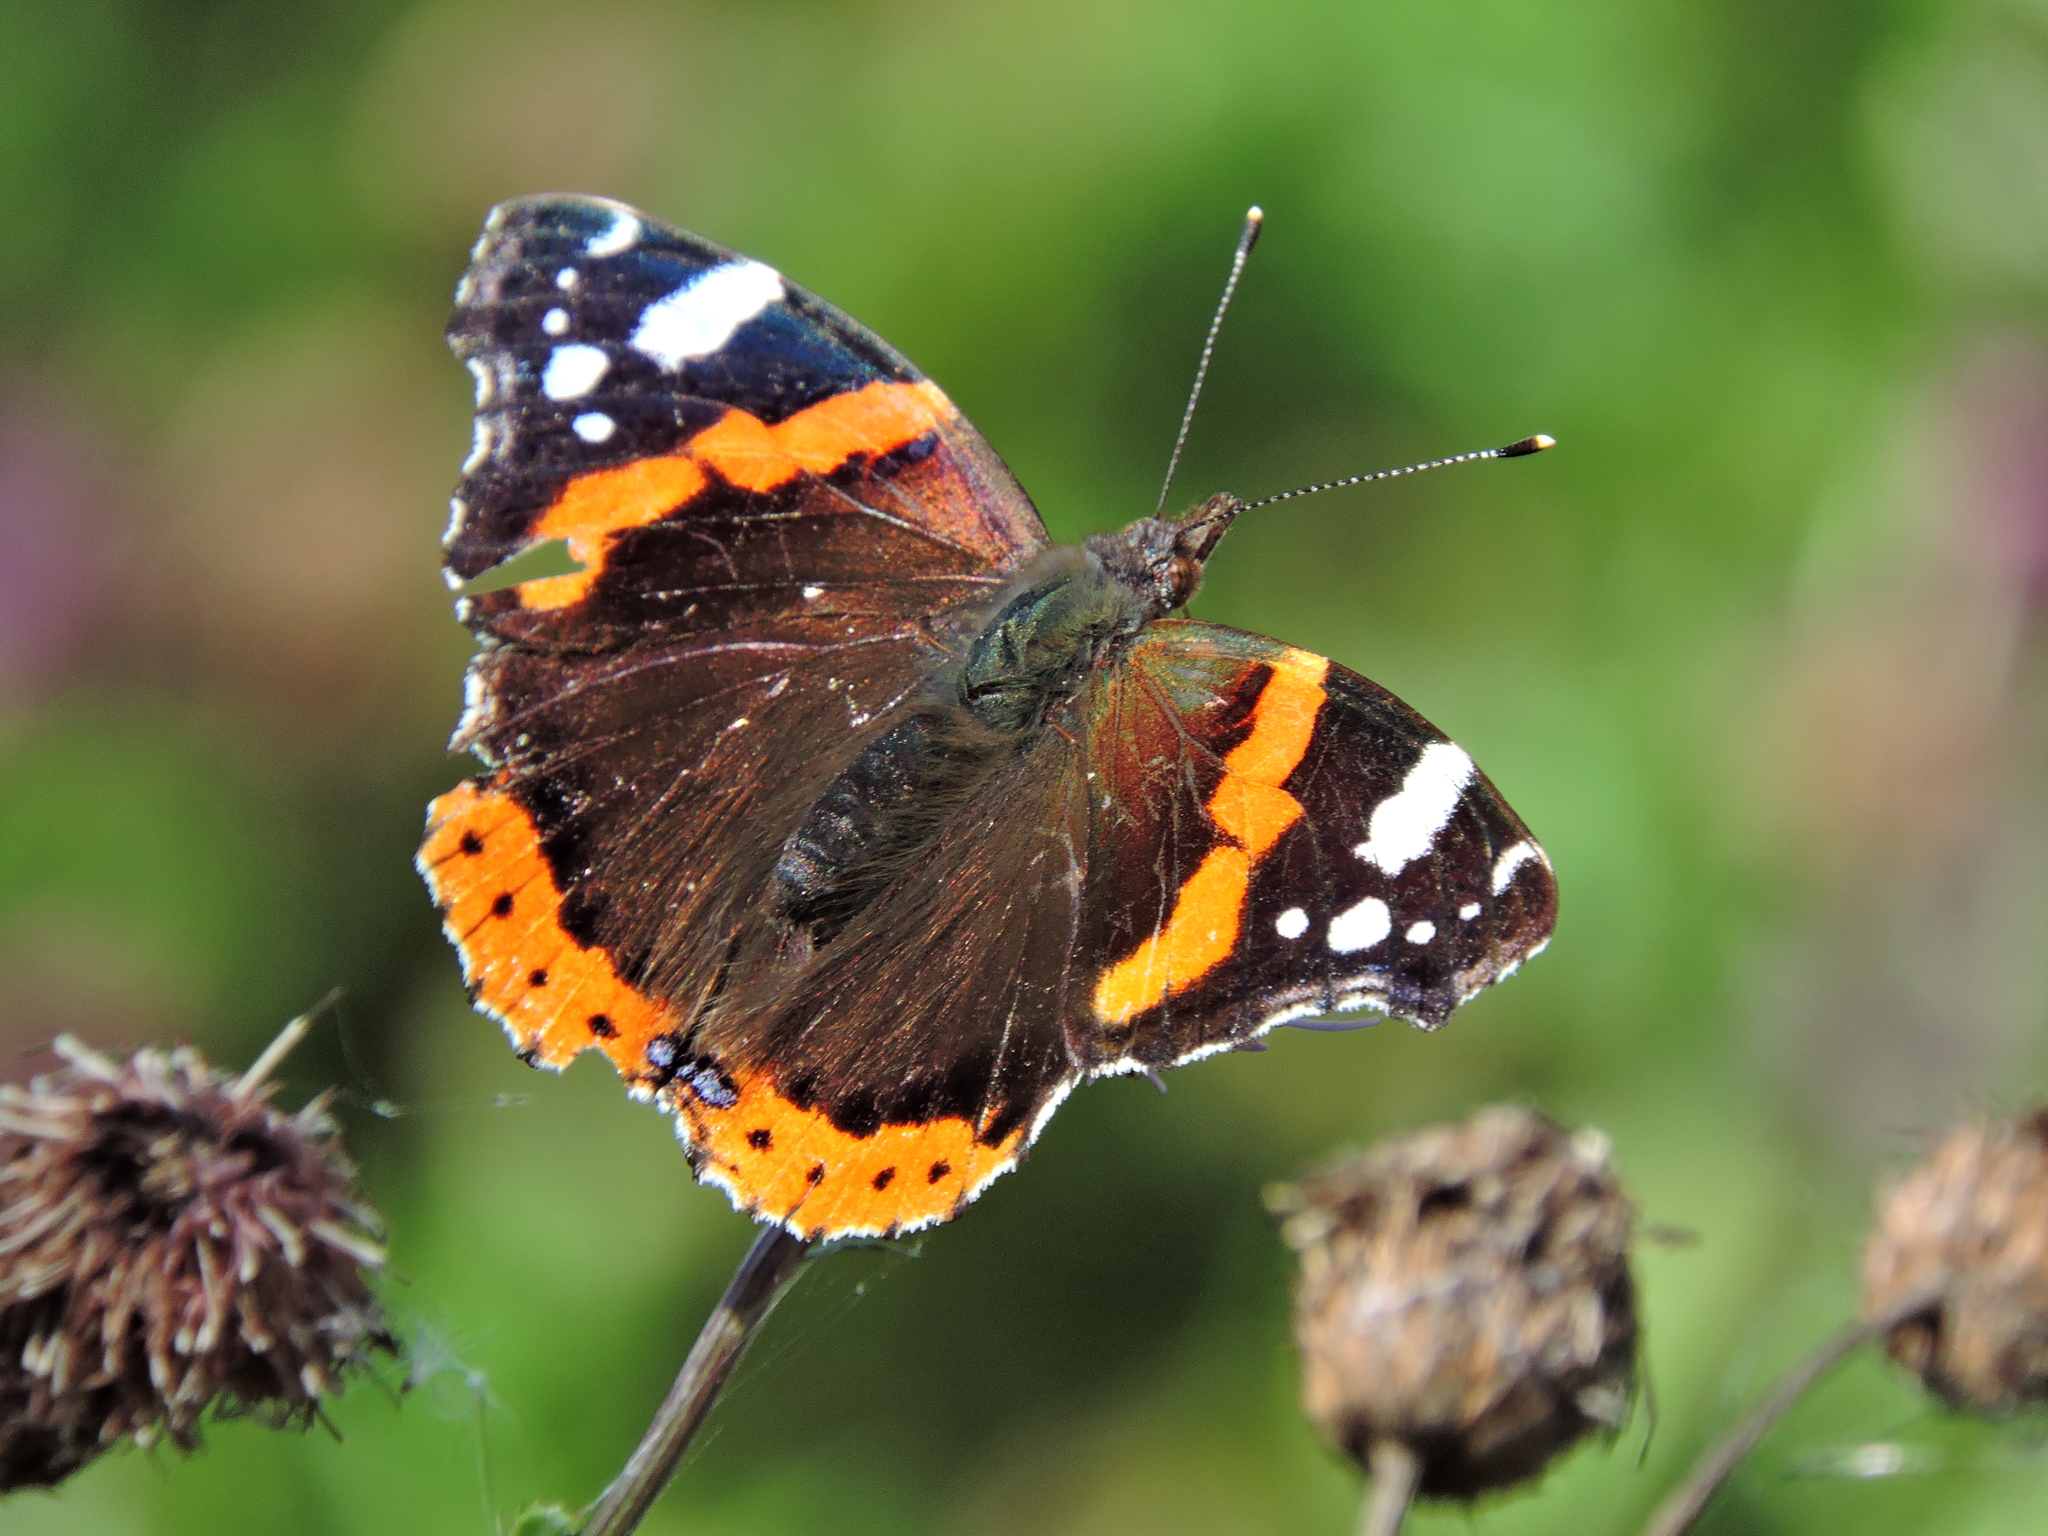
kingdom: Animalia
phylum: Arthropoda
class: Insecta
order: Lepidoptera
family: Nymphalidae
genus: Vanessa
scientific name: Vanessa atalanta
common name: Red admiral
